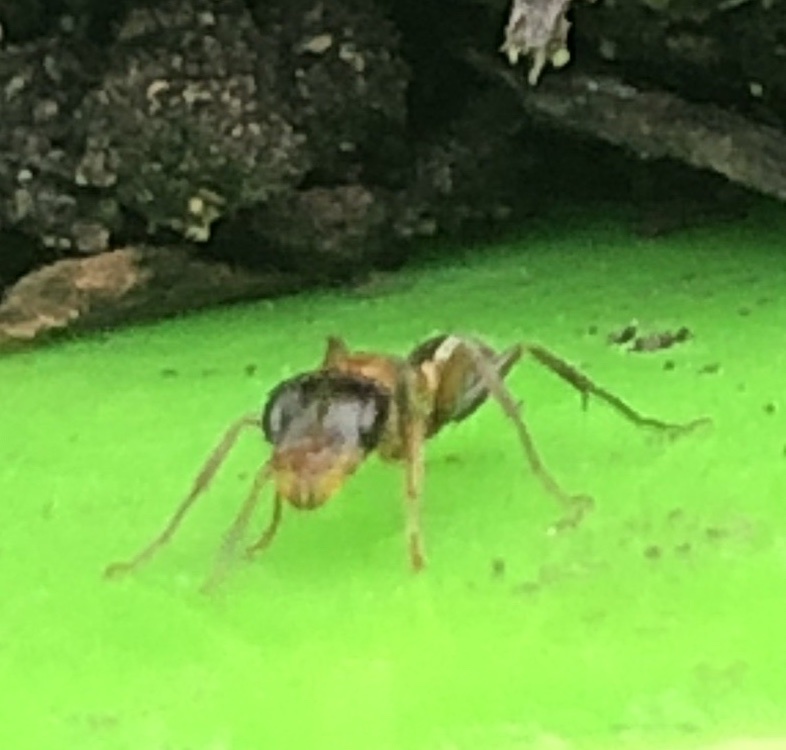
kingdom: Animalia
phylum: Arthropoda
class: Insecta
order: Hymenoptera
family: Formicidae
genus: Pseudomyrmex
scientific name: Pseudomyrmex gracilis
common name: Graceful twig ant
